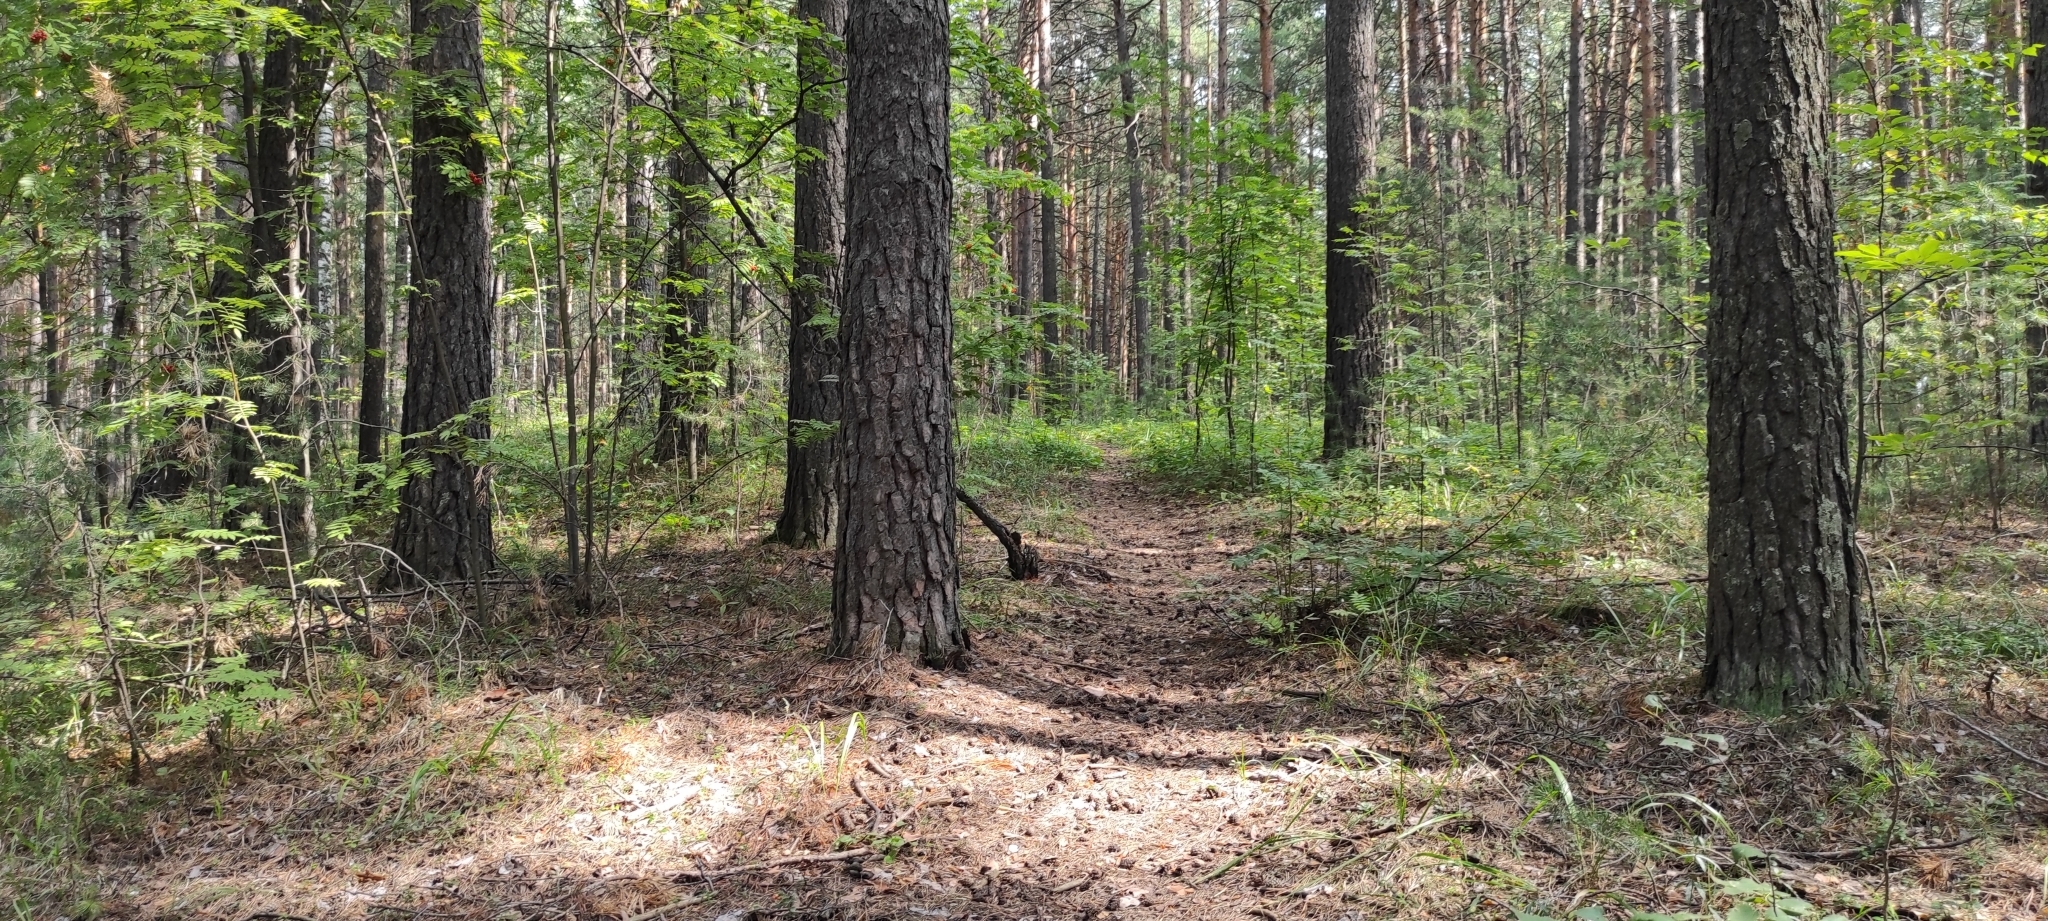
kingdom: Plantae
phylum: Tracheophyta
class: Pinopsida
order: Pinales
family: Pinaceae
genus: Pinus
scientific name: Pinus sylvestris
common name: Scots pine
